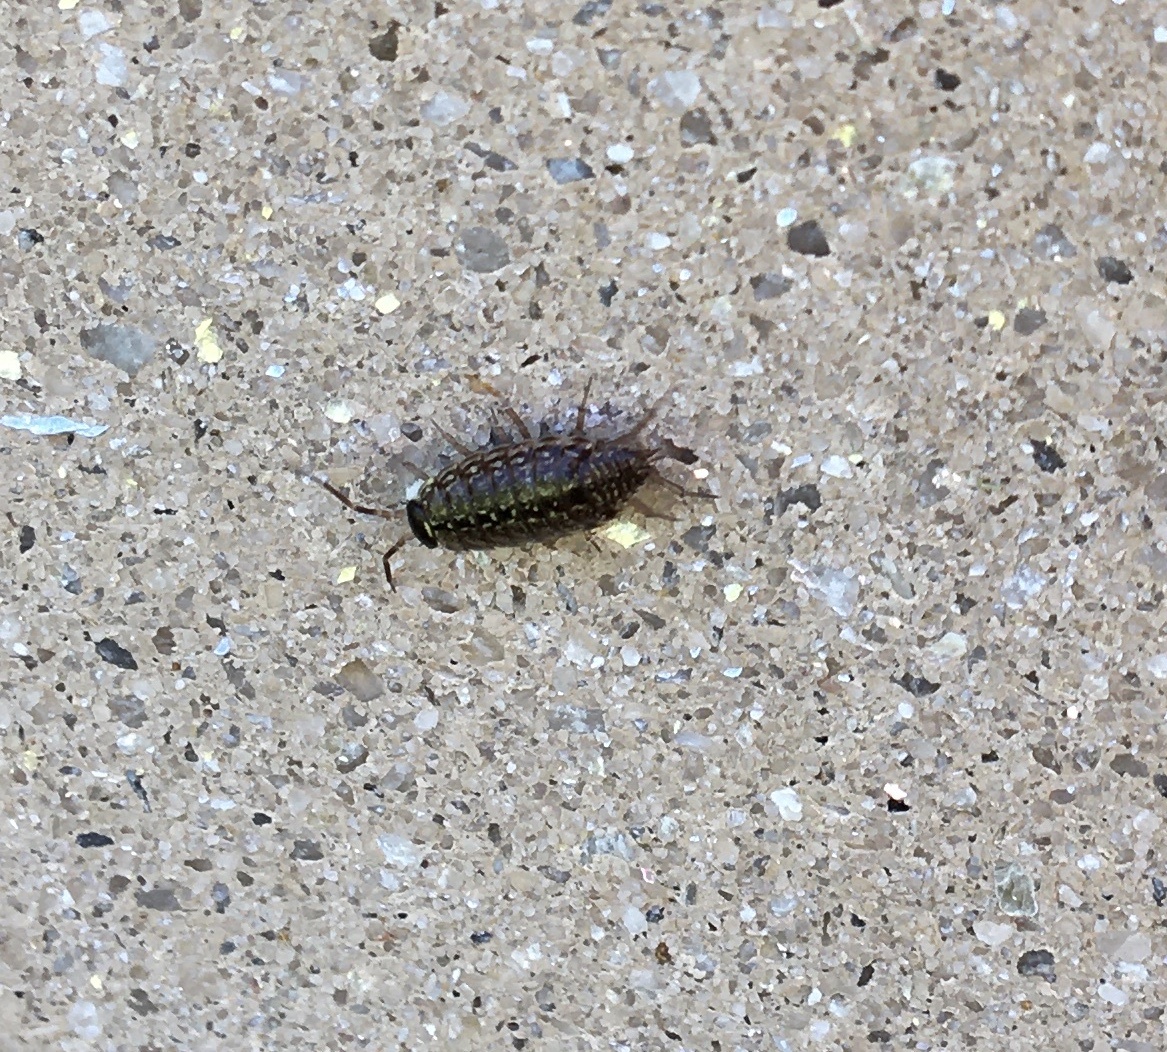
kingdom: Animalia
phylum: Arthropoda
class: Malacostraca
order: Isopoda
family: Philosciidae
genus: Philoscia
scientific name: Philoscia muscorum
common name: Common striped woodlouse
